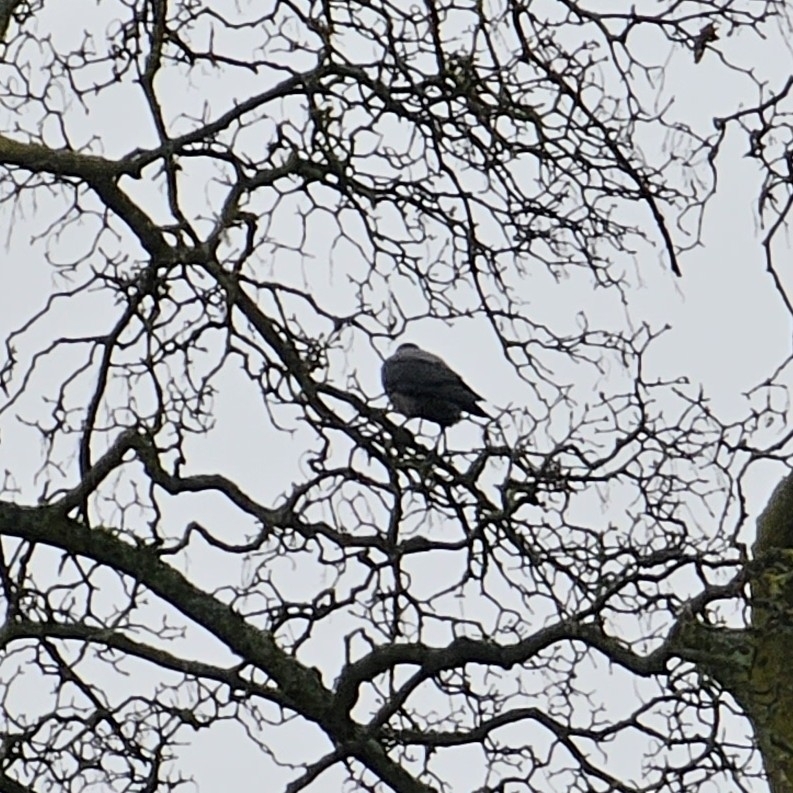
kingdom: Animalia
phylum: Chordata
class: Aves
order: Passeriformes
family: Corvidae
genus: Corvus
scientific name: Corvus cornix
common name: Hooded crow
